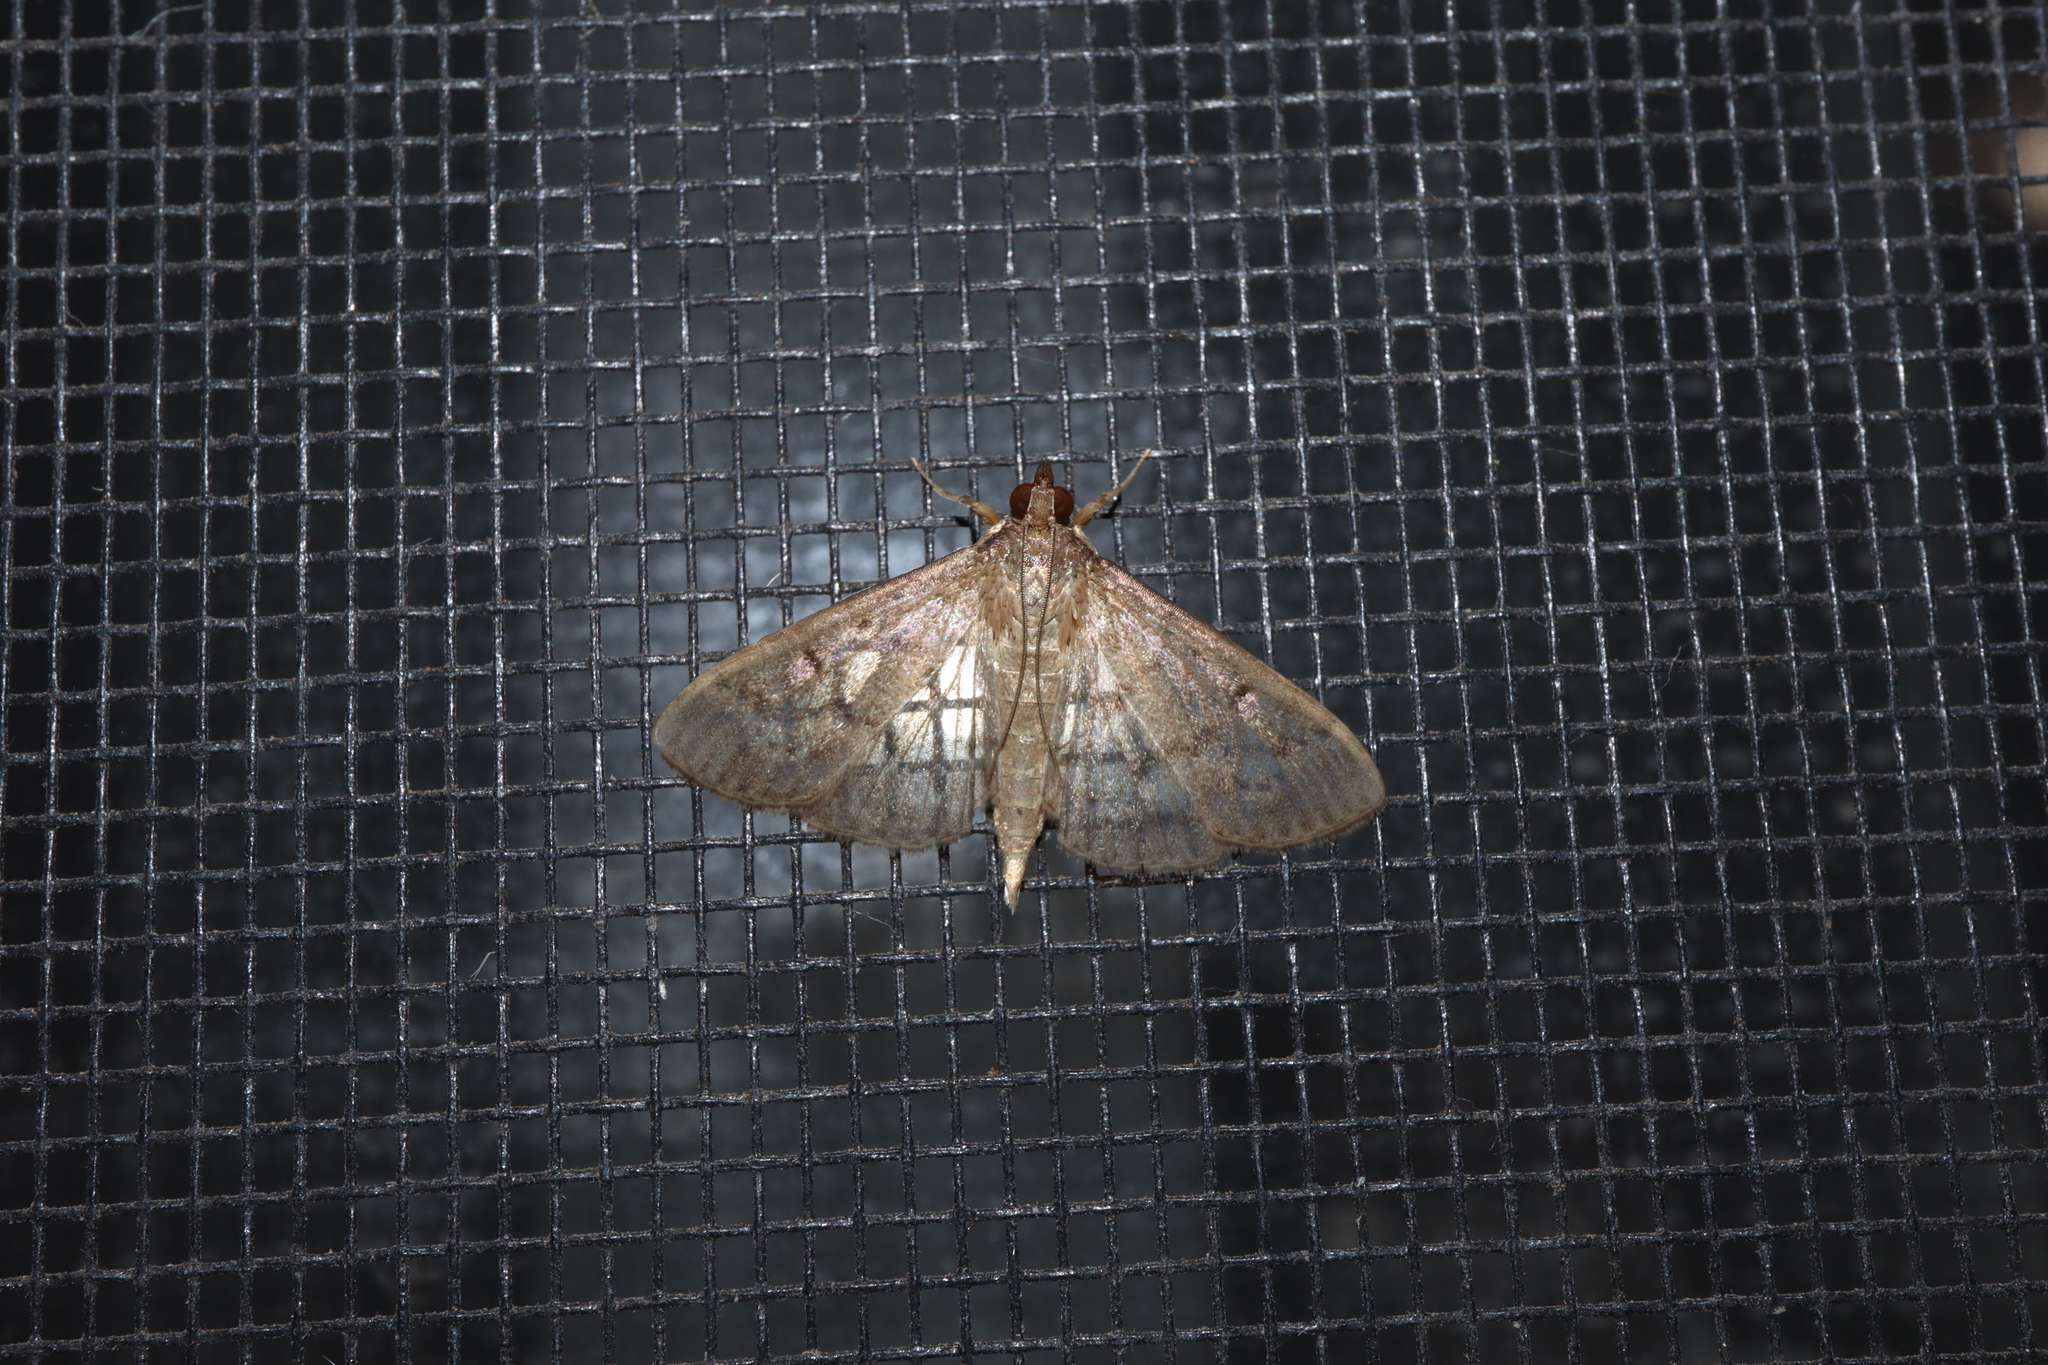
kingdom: Animalia
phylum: Arthropoda
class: Insecta
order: Lepidoptera
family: Crambidae
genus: Herpetogramma
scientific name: Herpetogramma licarsisalis
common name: Grass webworm
